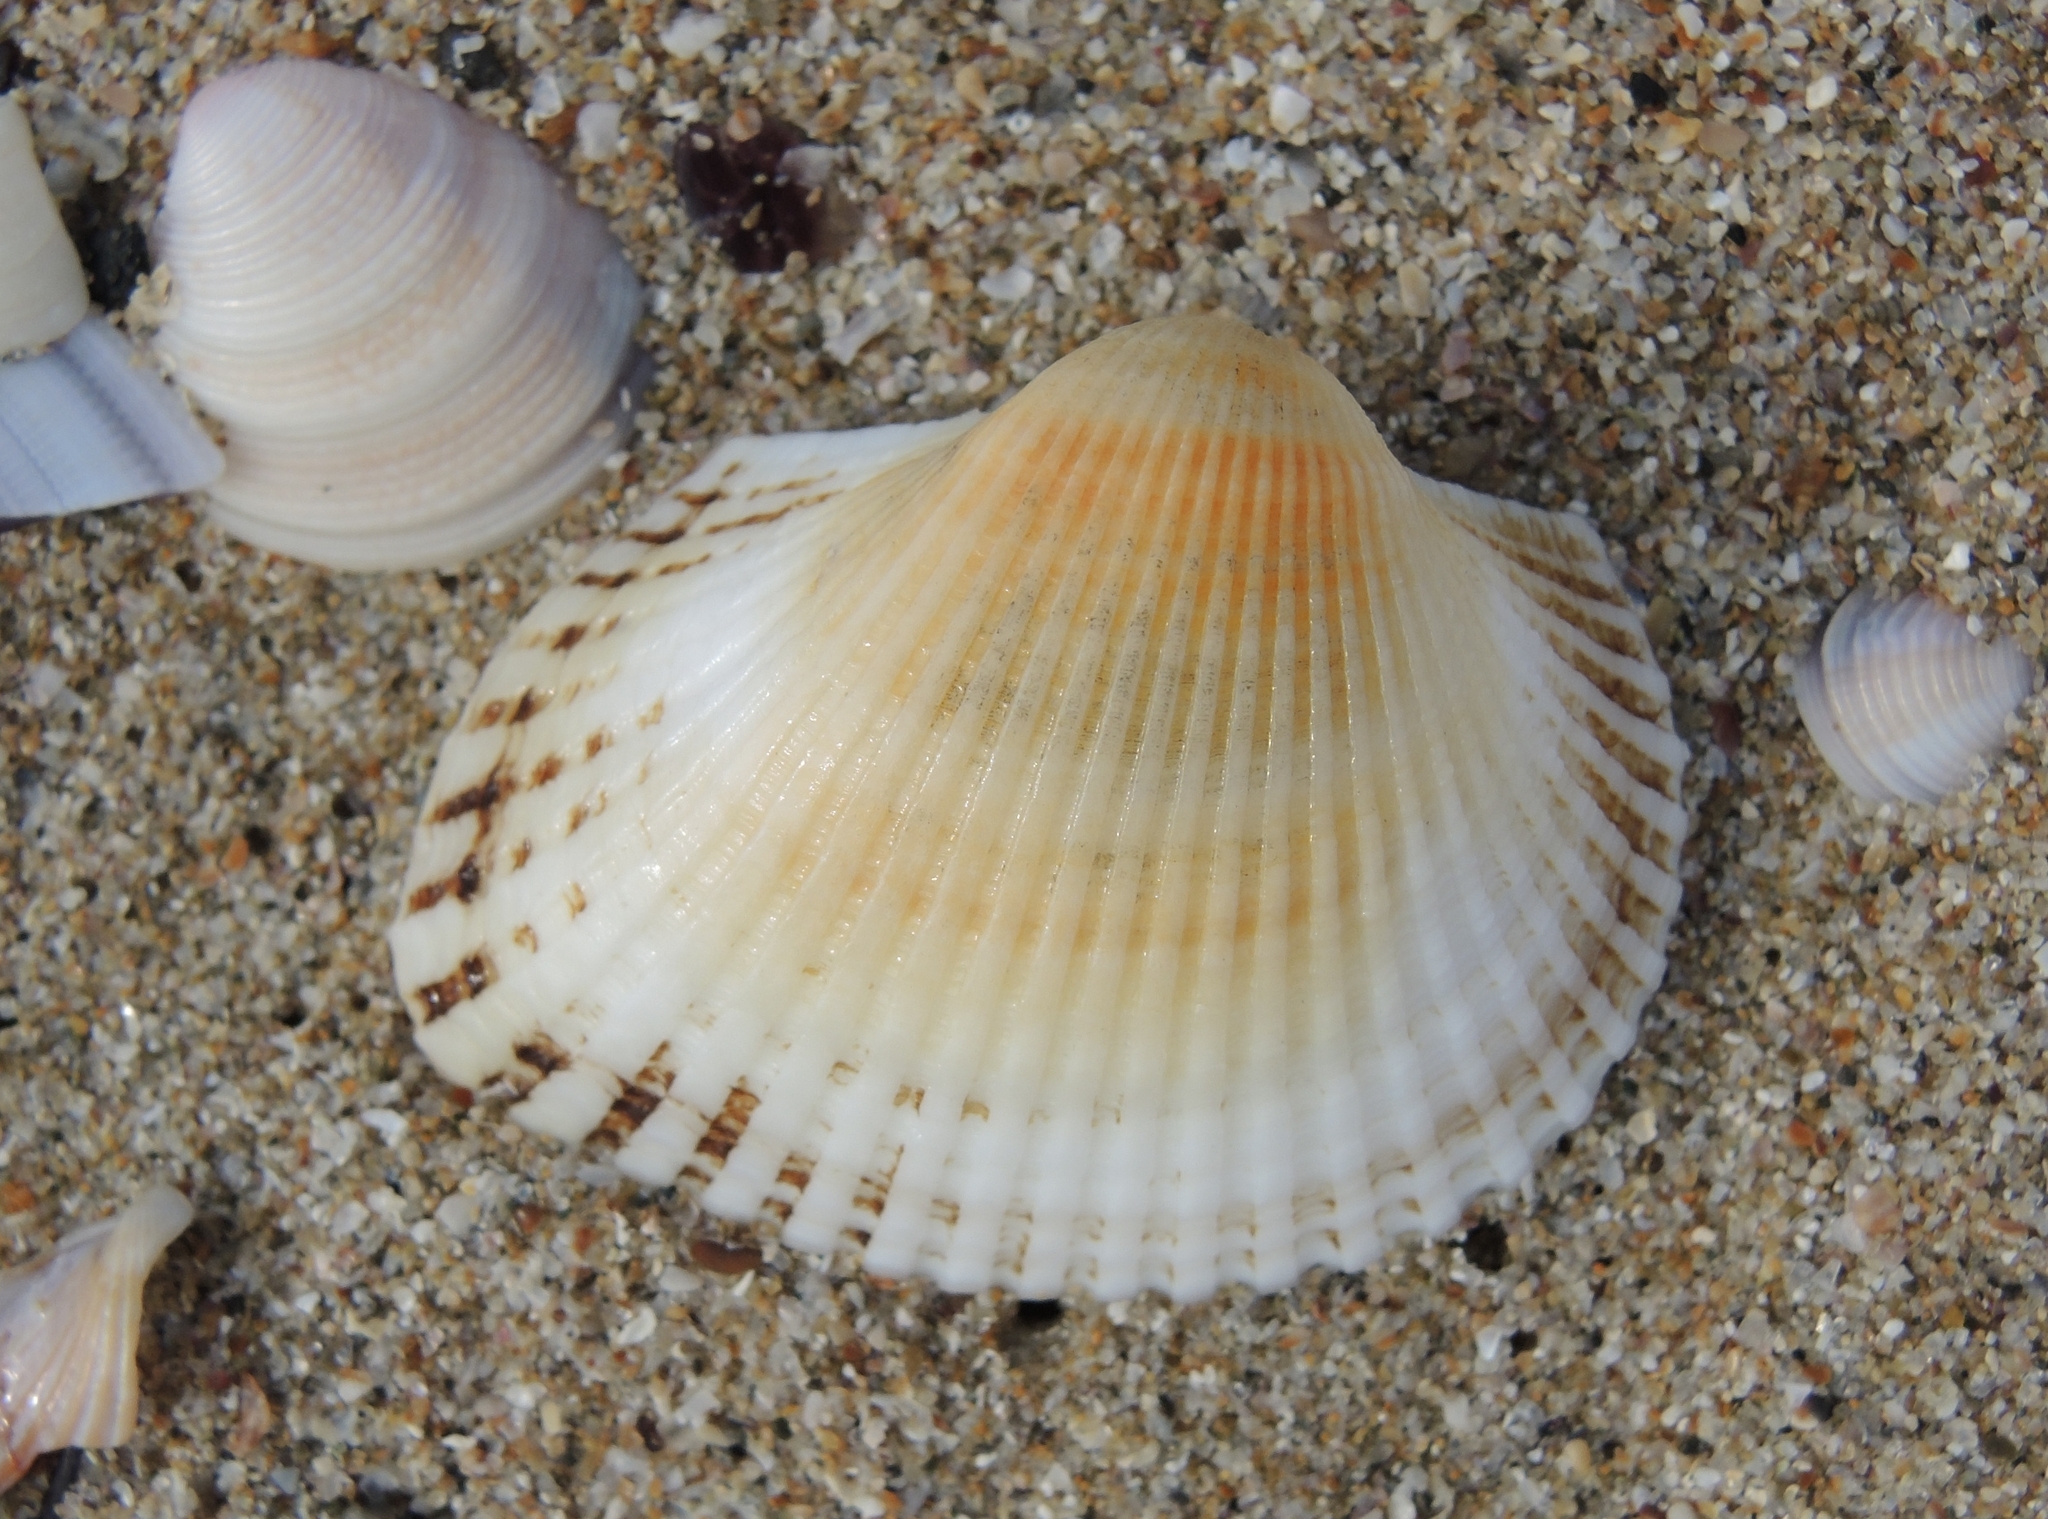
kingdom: Animalia
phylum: Mollusca
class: Bivalvia
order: Arcida
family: Arcidae
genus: Anadara
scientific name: Anadara kagoshimensis
